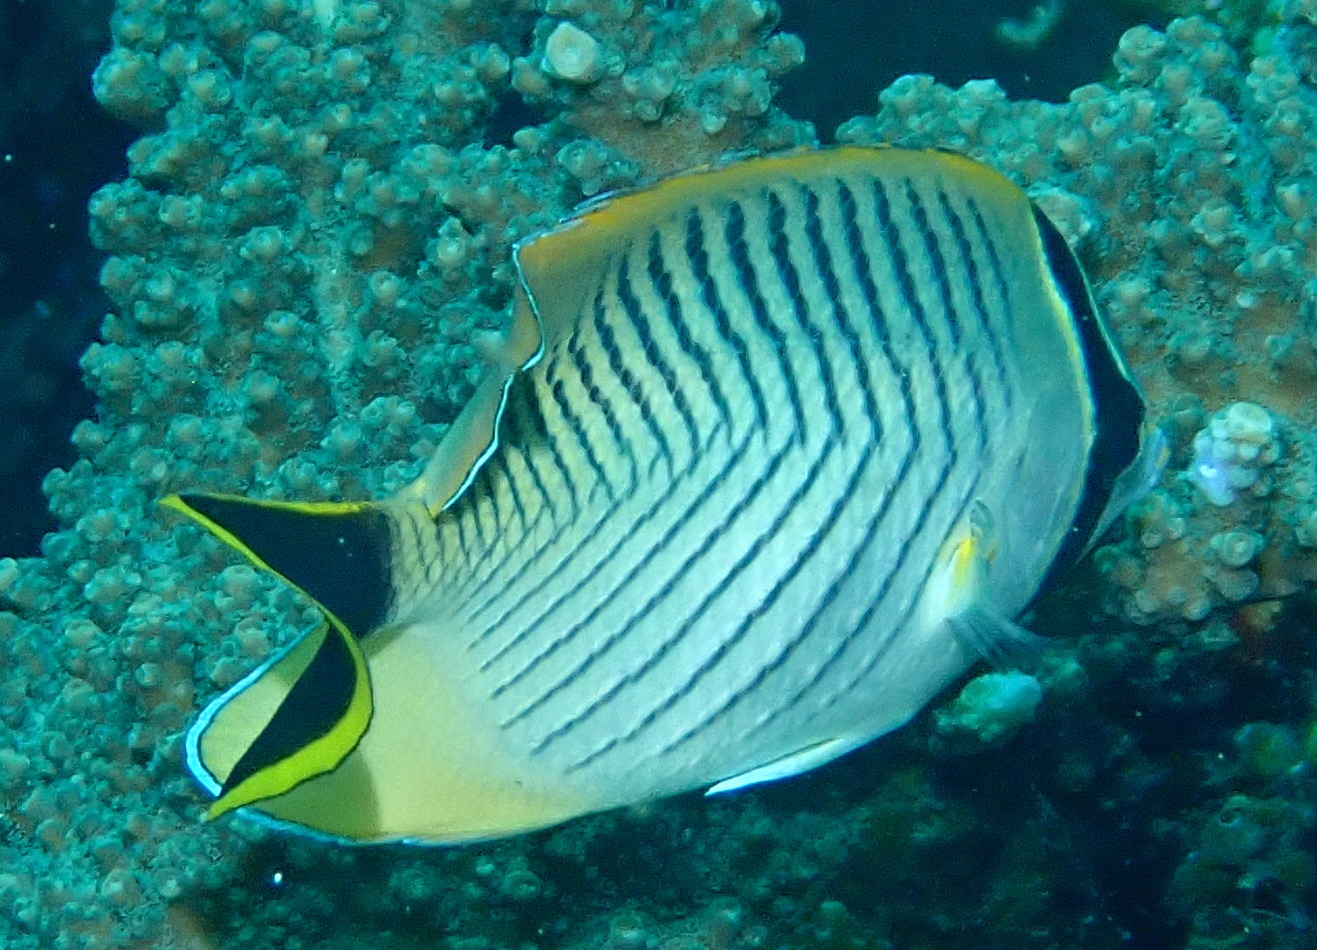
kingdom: Animalia
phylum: Chordata
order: Perciformes
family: Chaetodontidae
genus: Chaetodon
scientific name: Chaetodon trifascialis
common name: Chevroned butterflyfish
